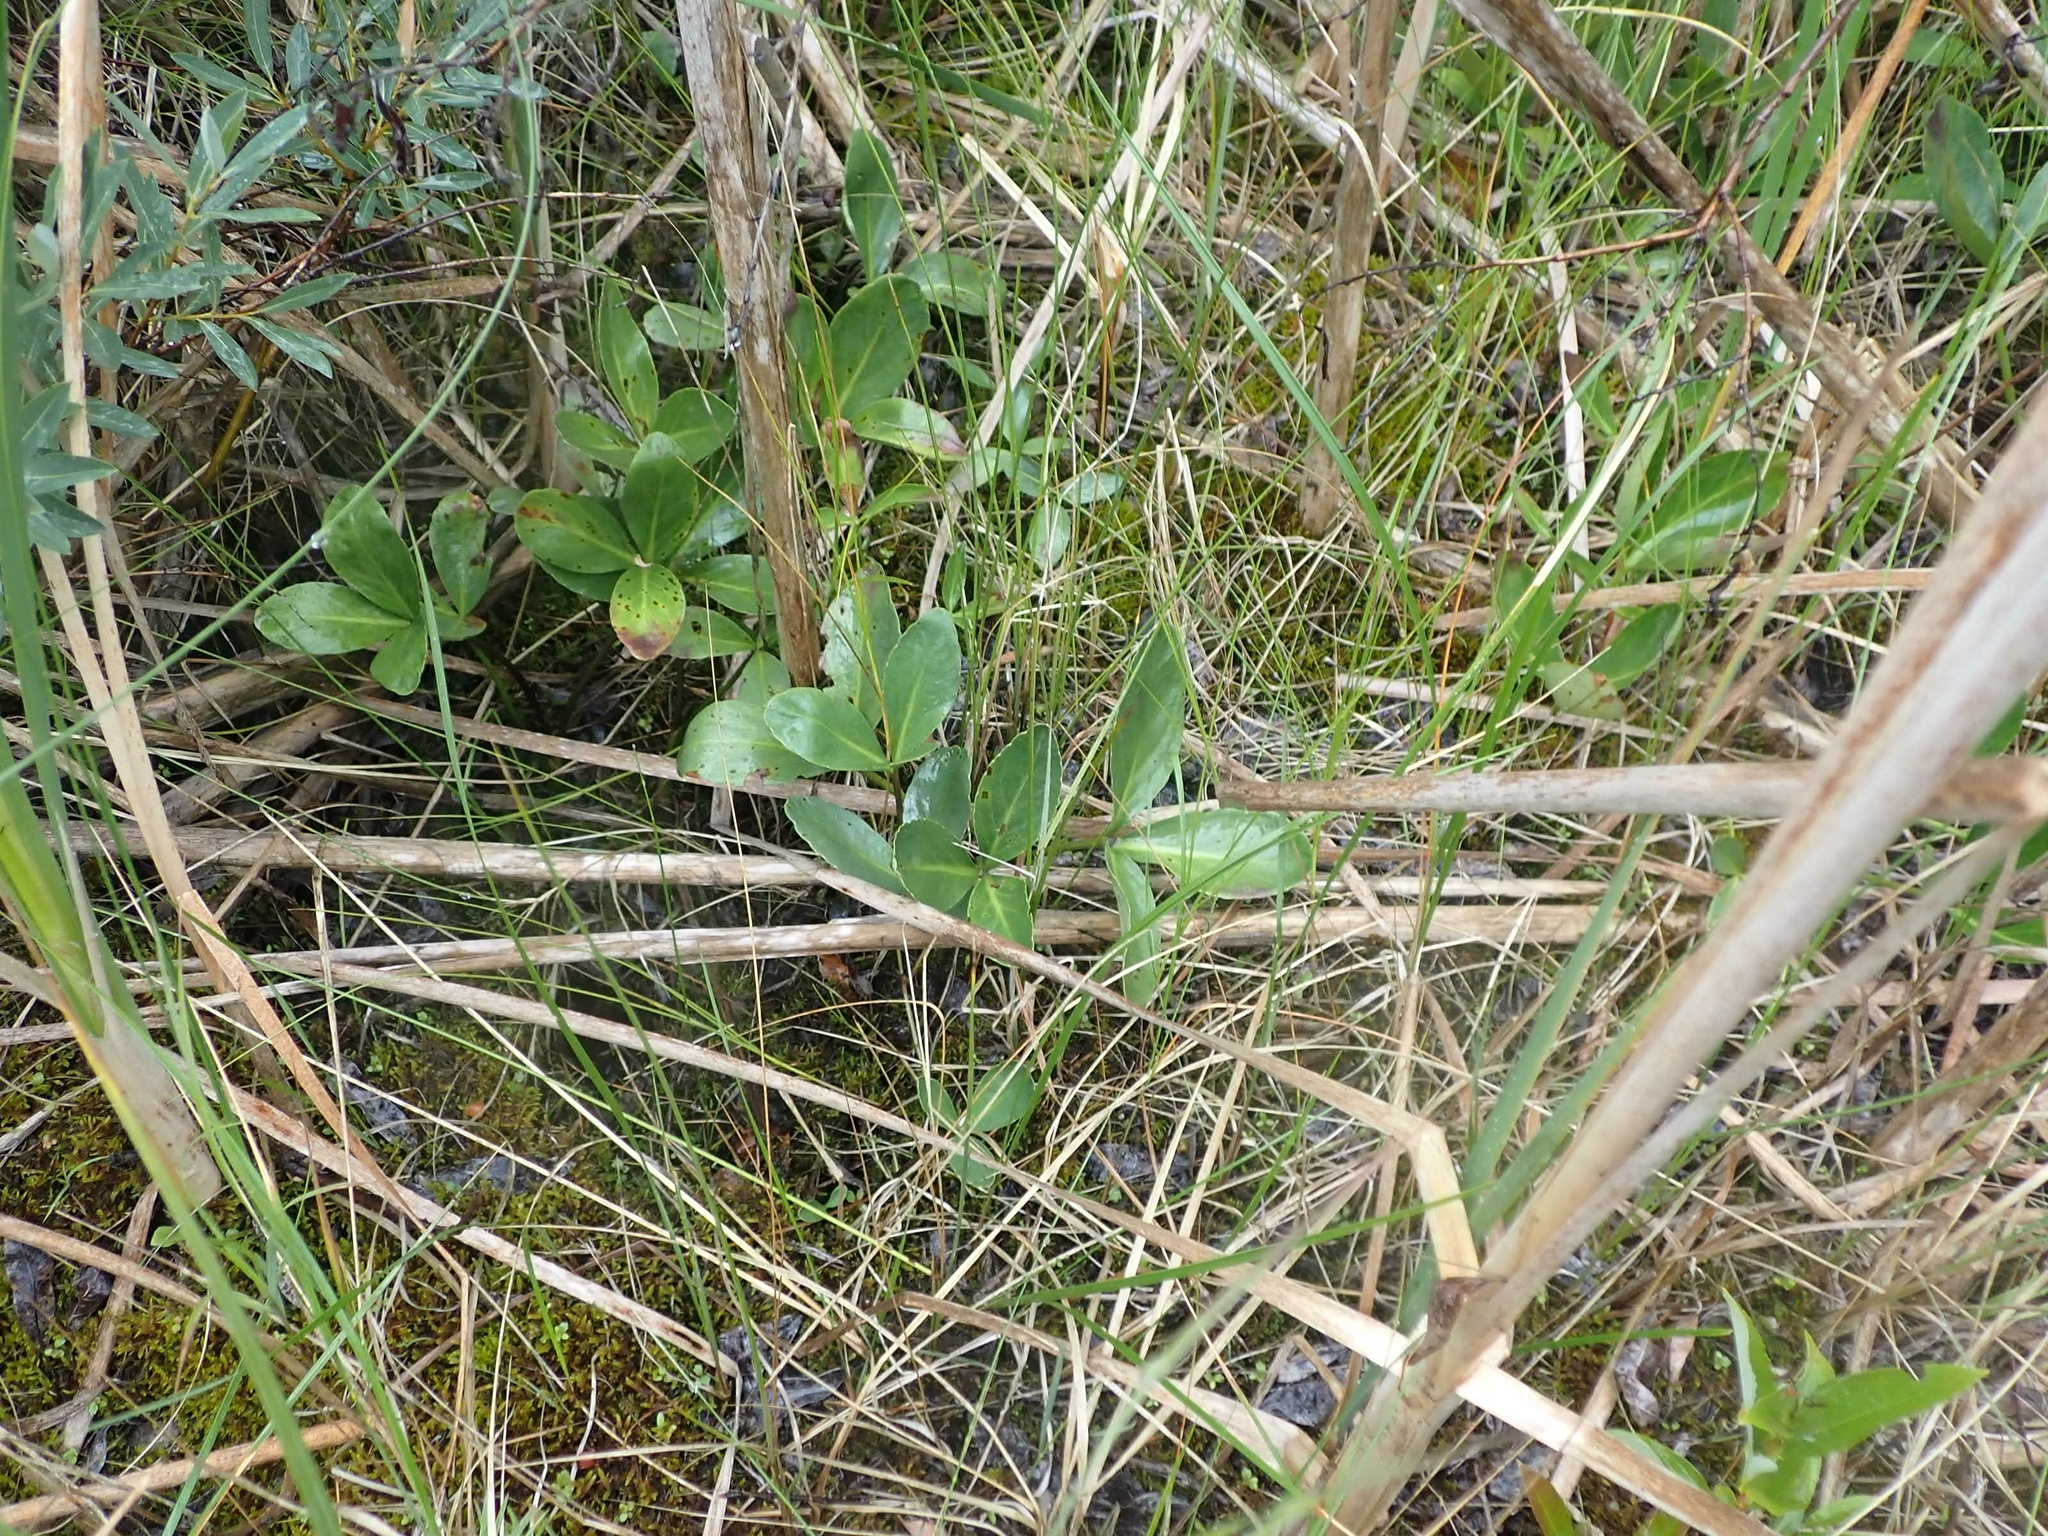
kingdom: Plantae
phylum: Tracheophyta
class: Magnoliopsida
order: Asterales
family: Menyanthaceae
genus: Menyanthes
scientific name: Menyanthes trifoliata
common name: Bogbean
